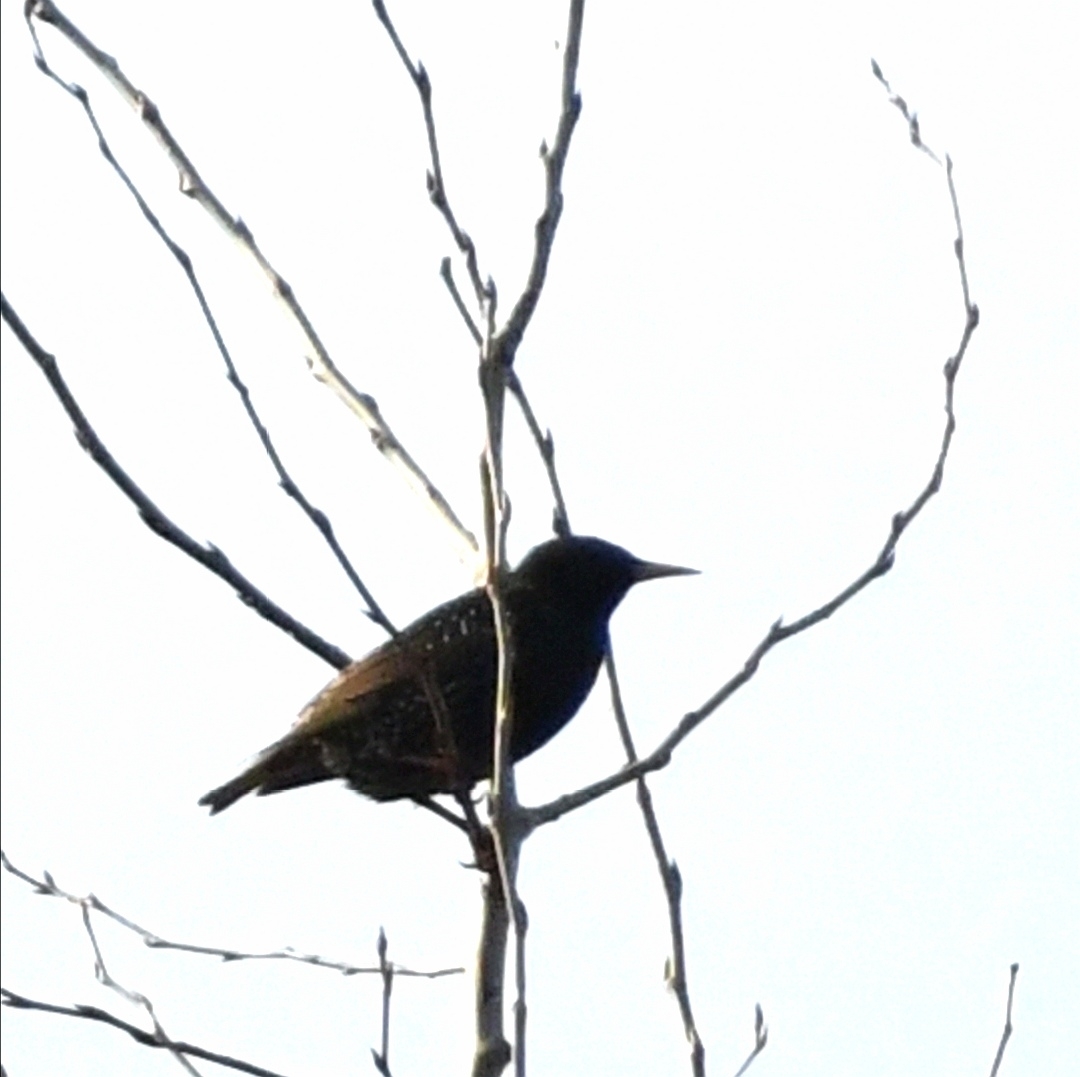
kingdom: Animalia
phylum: Chordata
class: Aves
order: Passeriformes
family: Sturnidae
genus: Sturnus
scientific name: Sturnus vulgaris
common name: Common starling
